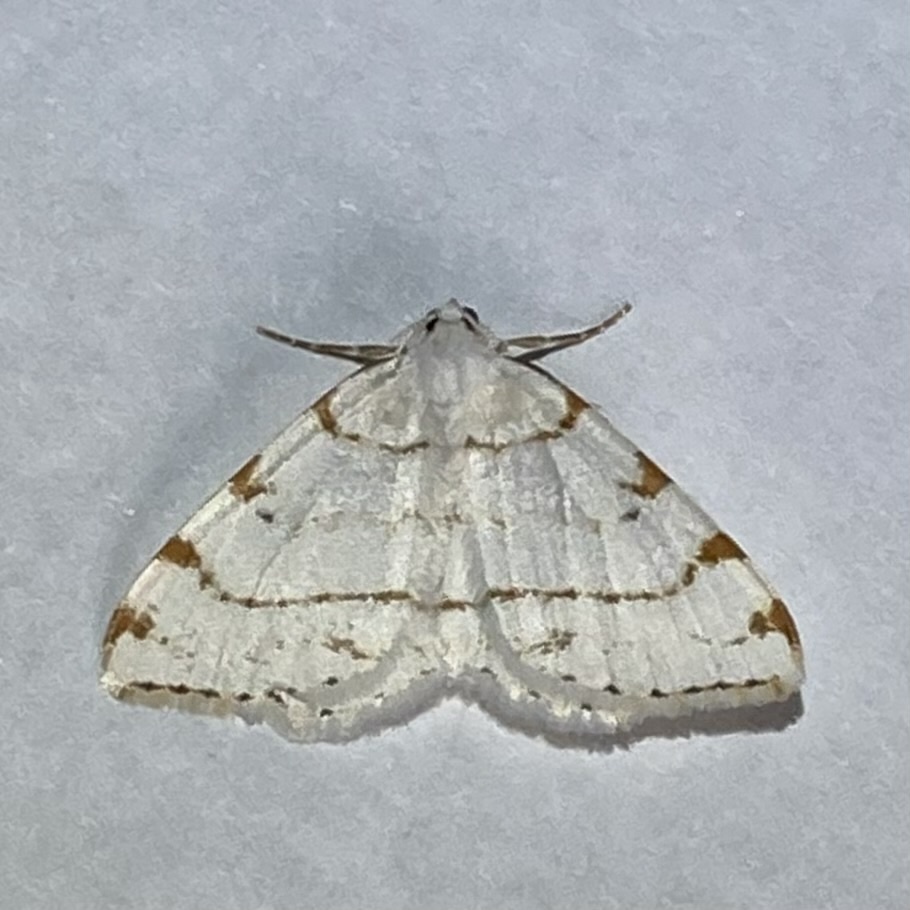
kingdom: Animalia
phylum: Arthropoda
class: Insecta
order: Lepidoptera
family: Geometridae
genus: Macaria
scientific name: Macaria pustularia
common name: Lesser maple spanworm moth
